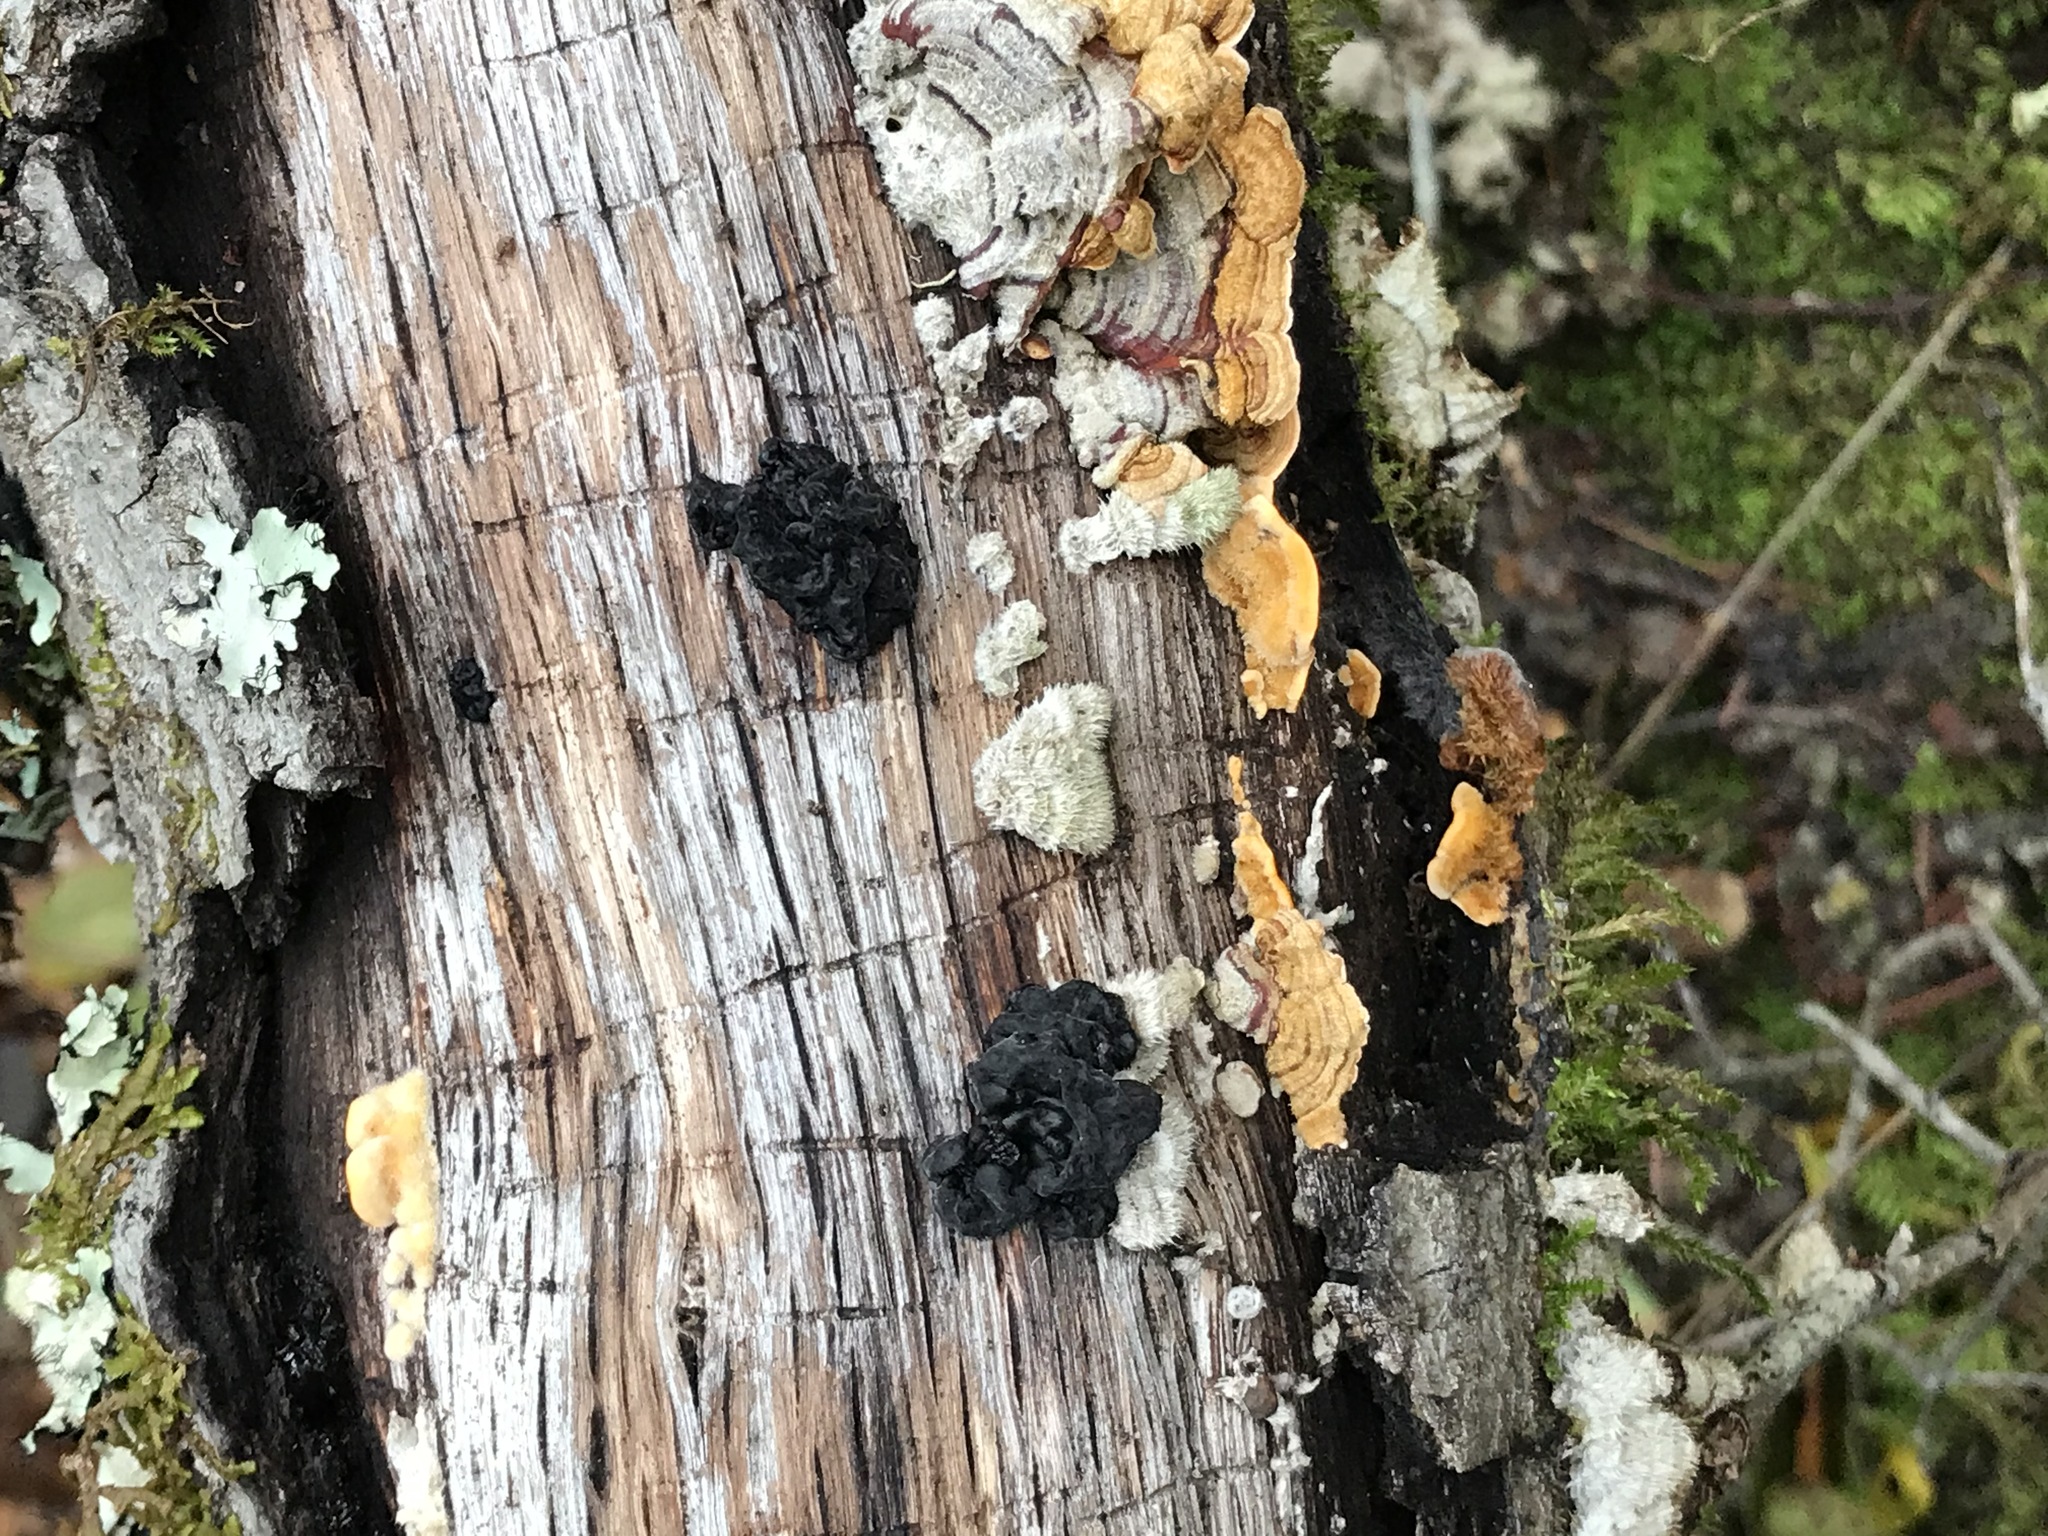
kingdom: Fungi
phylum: Basidiomycota
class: Agaricomycetes
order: Auriculariales
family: Auriculariaceae
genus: Exidia
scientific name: Exidia glandulosa
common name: Witches' butter
